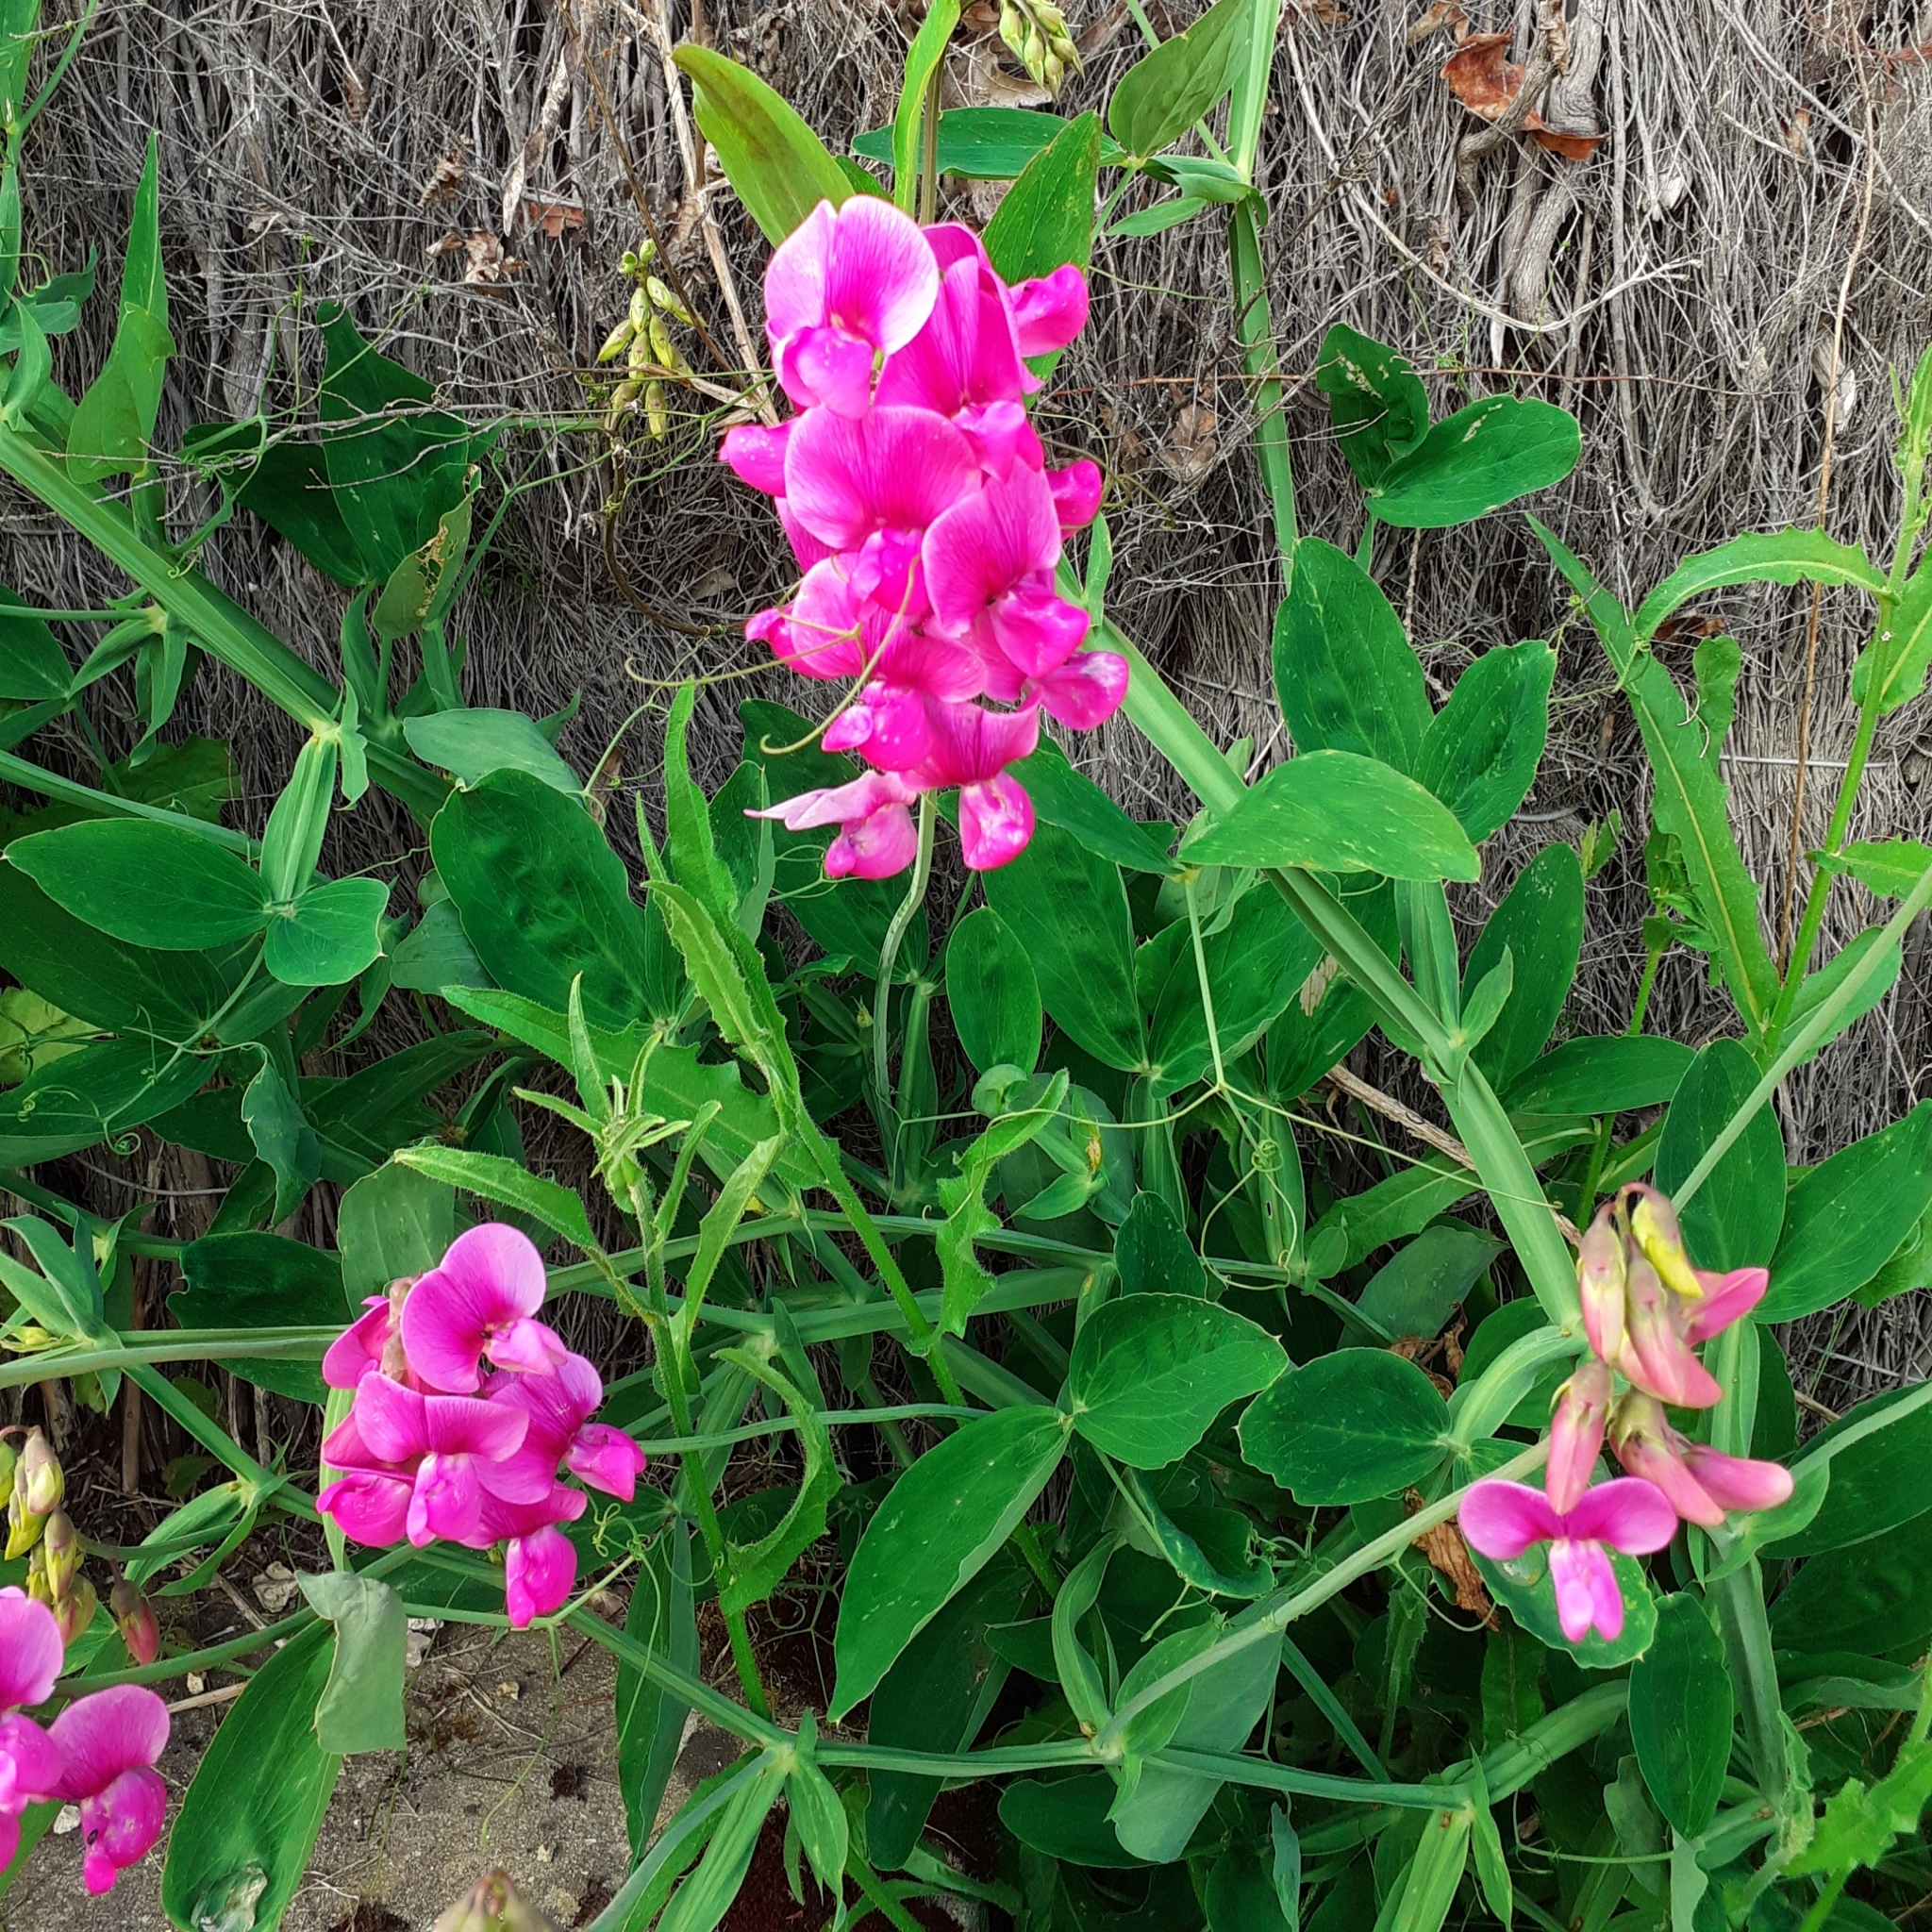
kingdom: Plantae
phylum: Tracheophyta
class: Magnoliopsida
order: Fabales
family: Fabaceae
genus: Lathyrus
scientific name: Lathyrus latifolius
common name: Perennial pea
